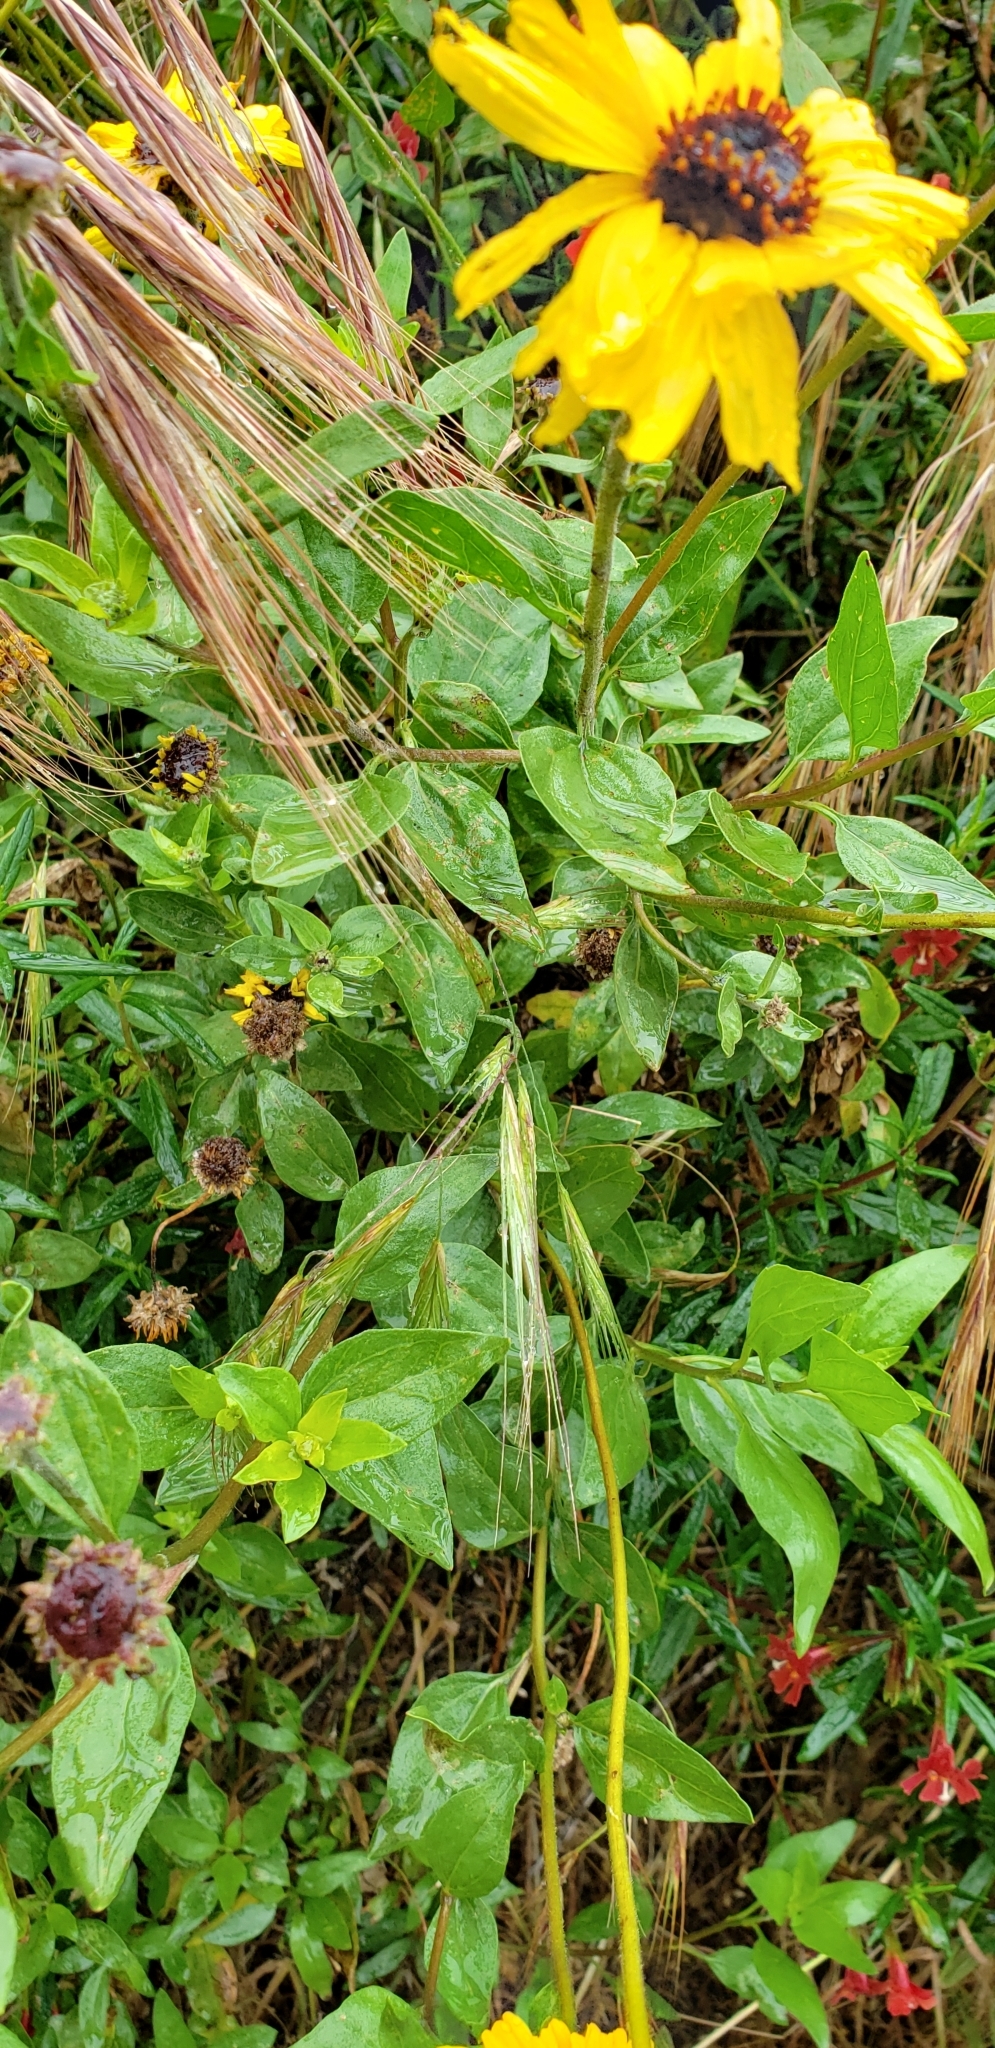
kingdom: Plantae
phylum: Tracheophyta
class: Magnoliopsida
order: Asterales
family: Asteraceae
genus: Encelia
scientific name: Encelia californica
